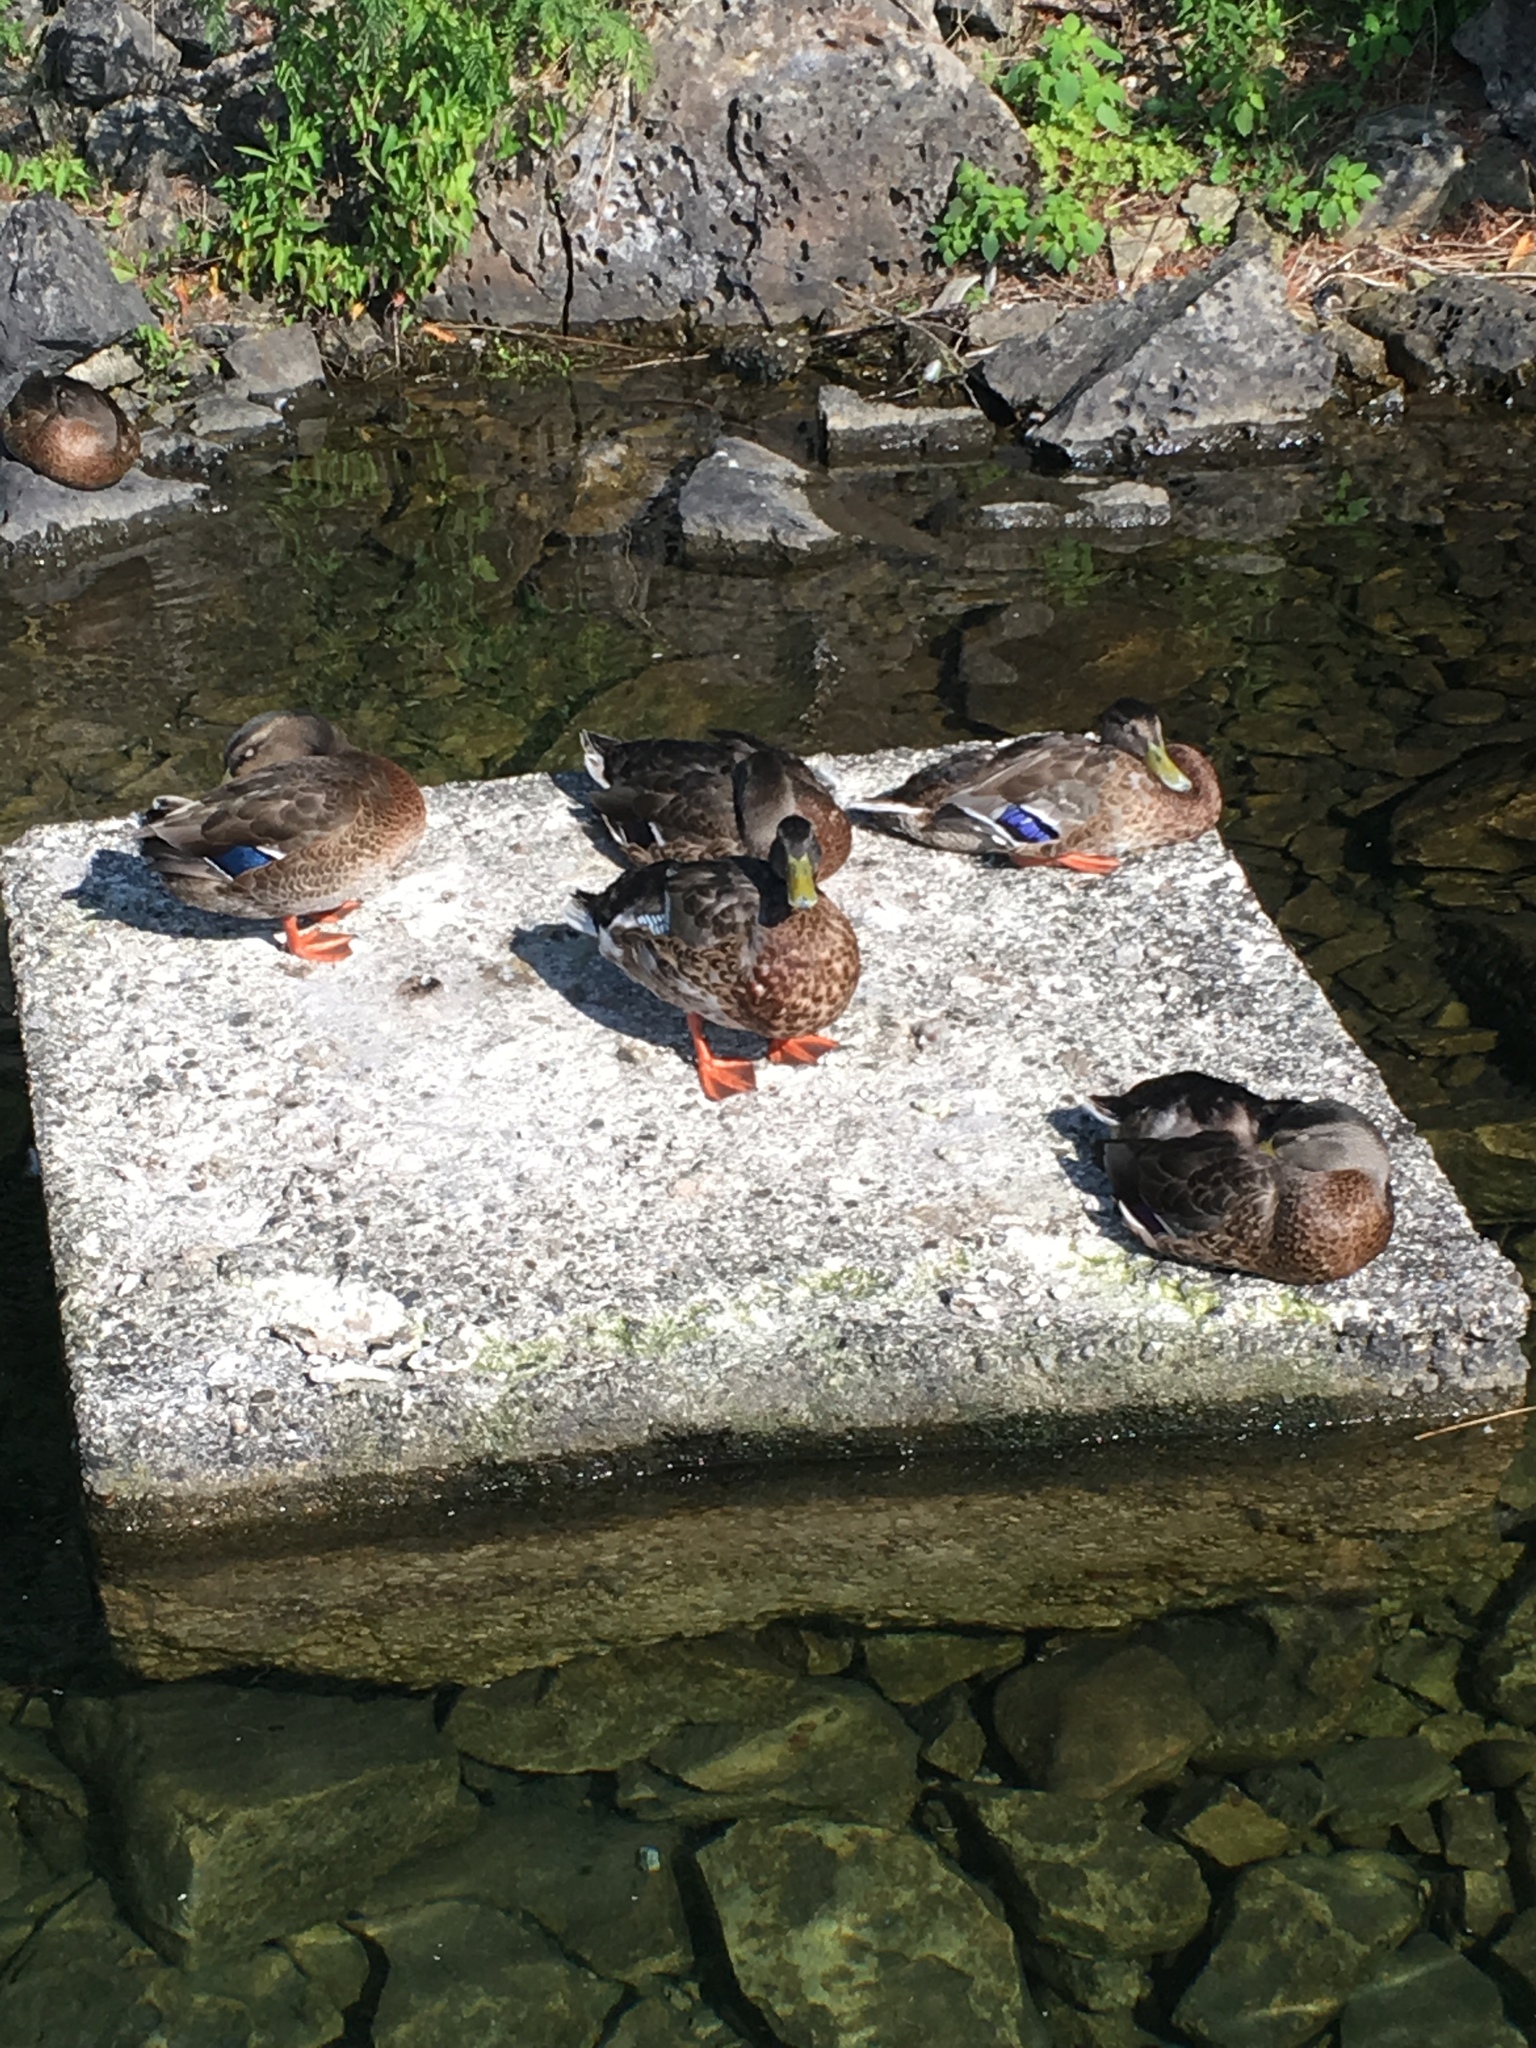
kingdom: Animalia
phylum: Chordata
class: Aves
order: Anseriformes
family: Anatidae
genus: Anas
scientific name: Anas platyrhynchos
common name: Mallard
